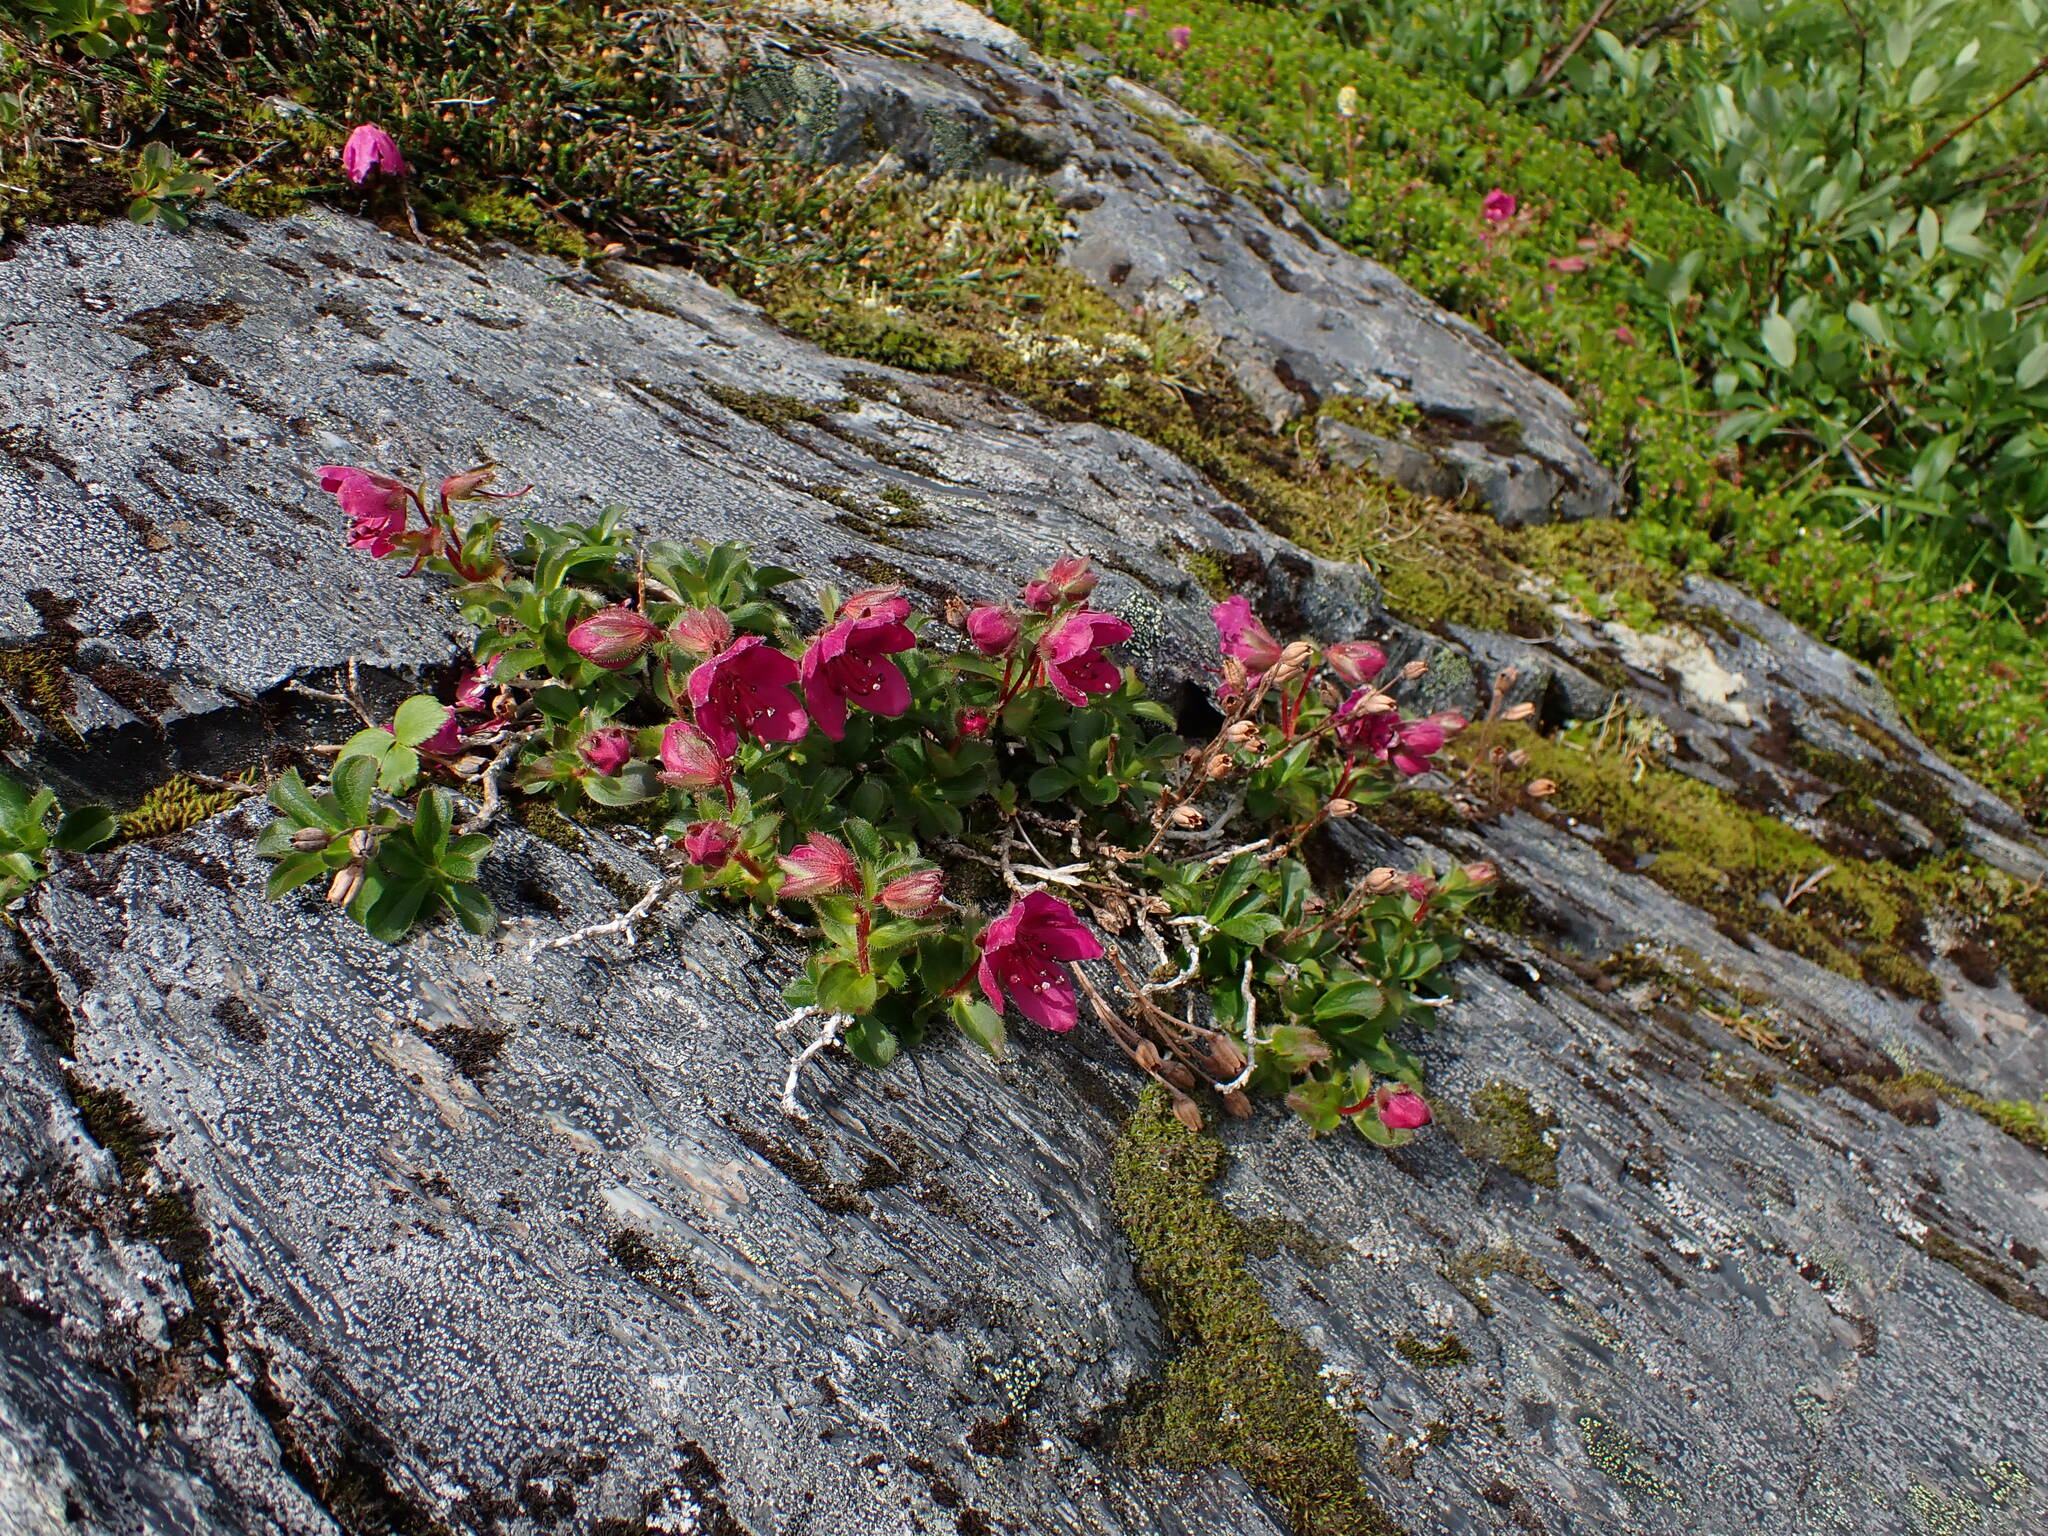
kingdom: Plantae
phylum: Tracheophyta
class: Magnoliopsida
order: Ericales
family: Ericaceae
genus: Rhododendron
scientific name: Rhododendron camtschaticum
